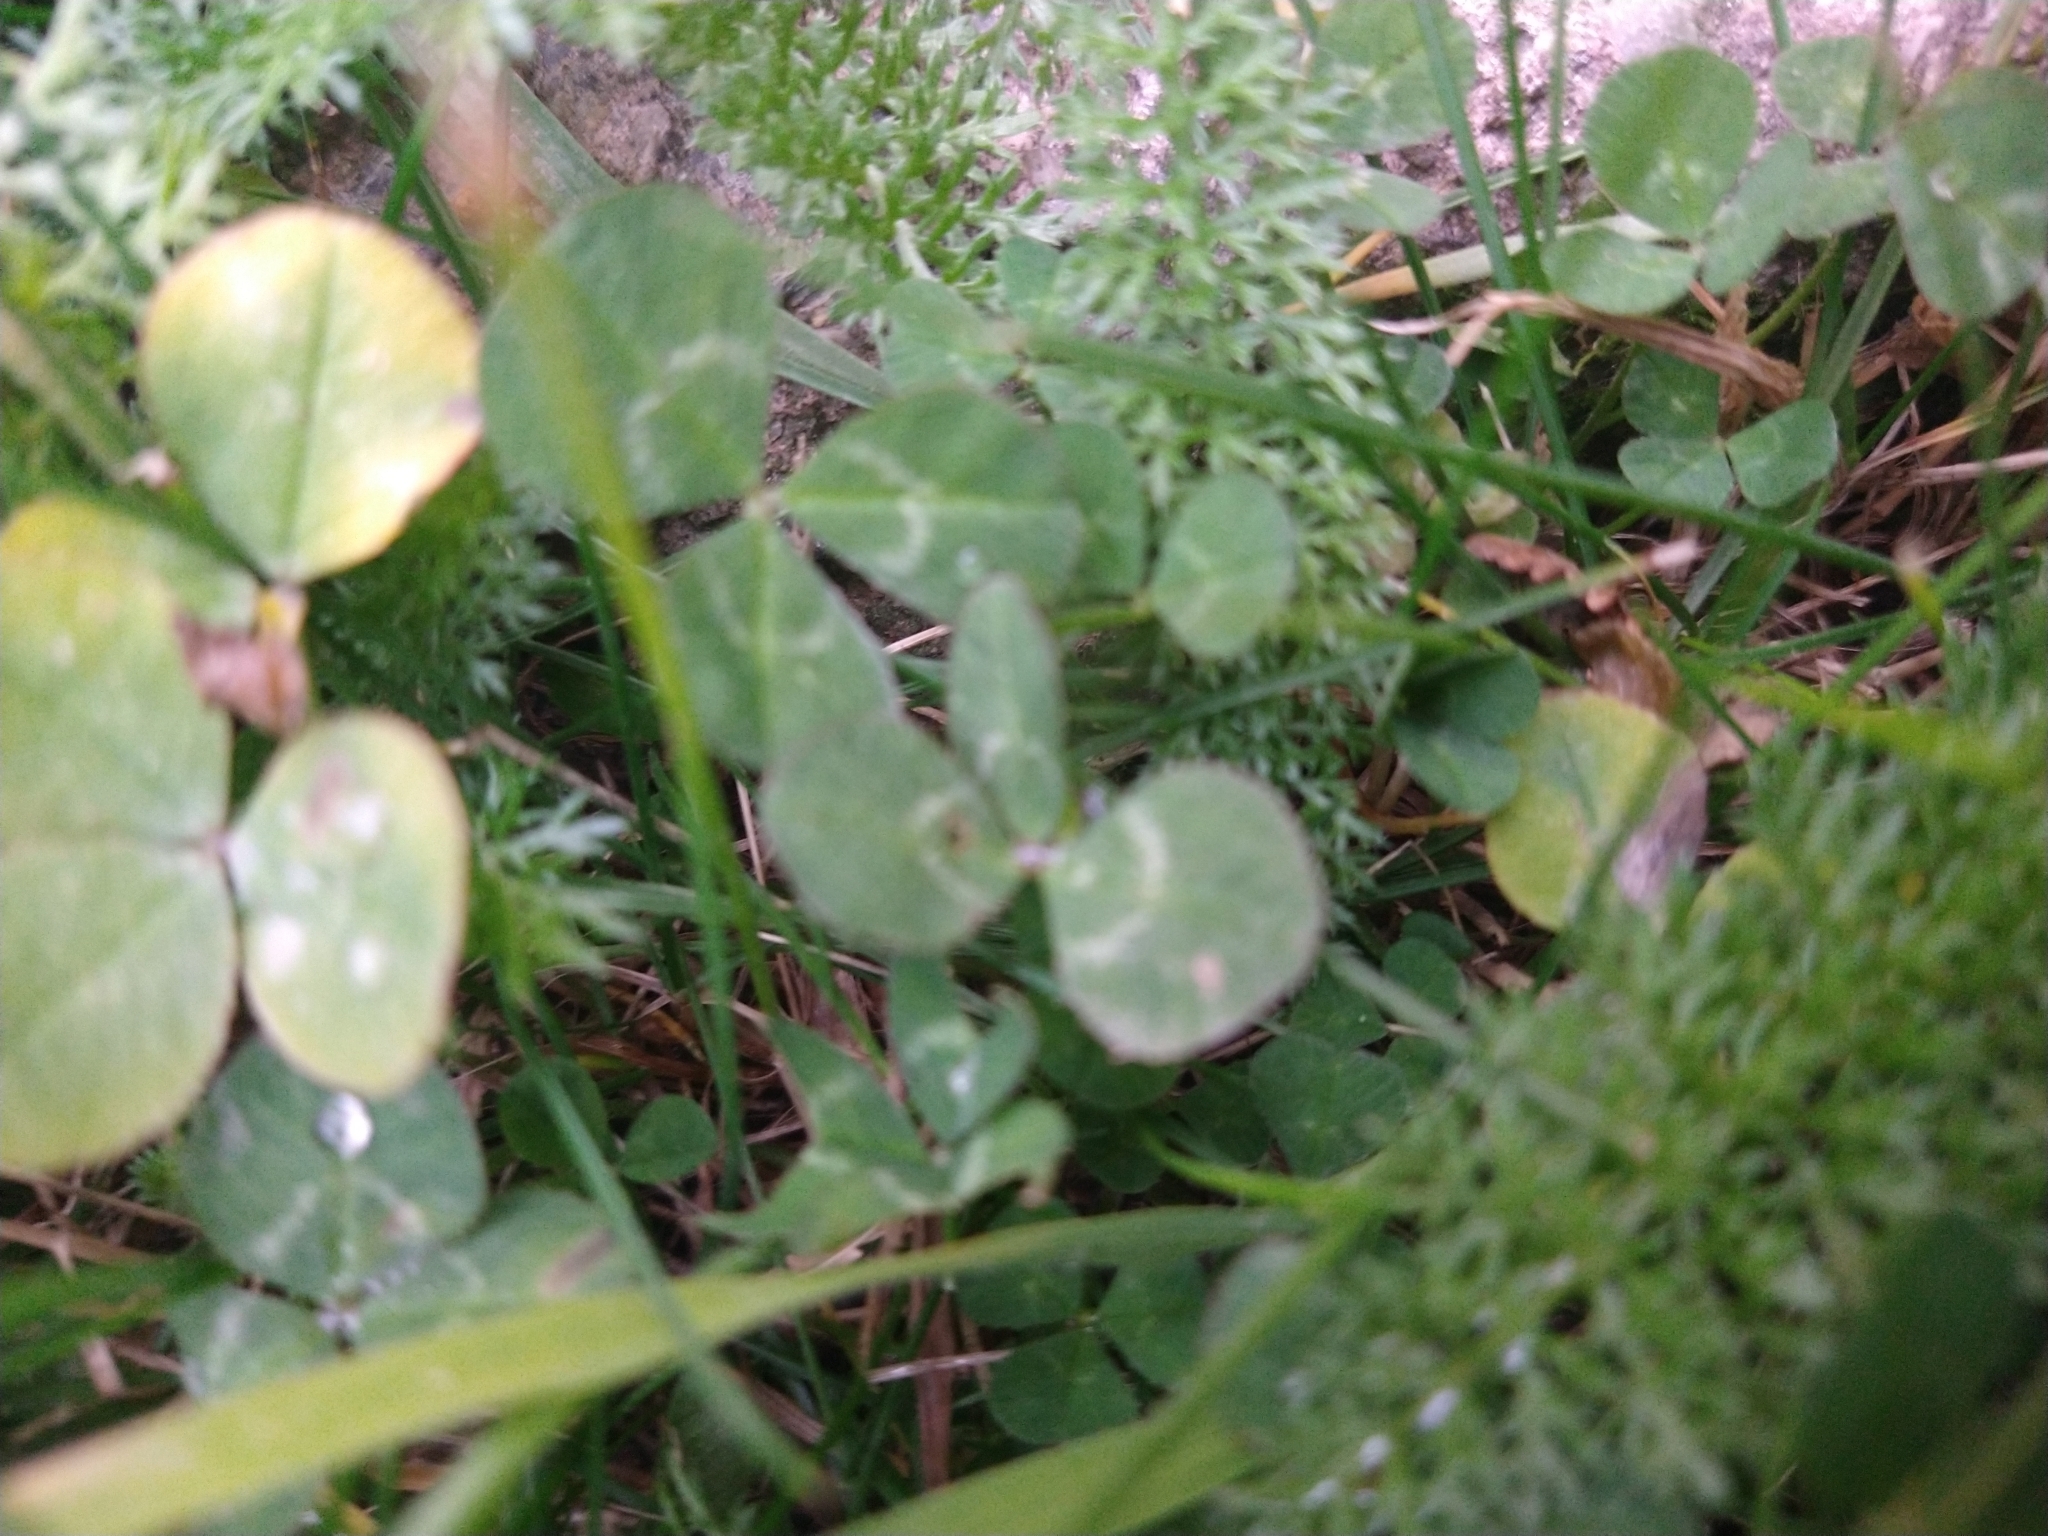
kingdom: Plantae
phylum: Tracheophyta
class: Magnoliopsida
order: Fabales
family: Fabaceae
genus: Trifolium
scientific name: Trifolium repens
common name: White clover
